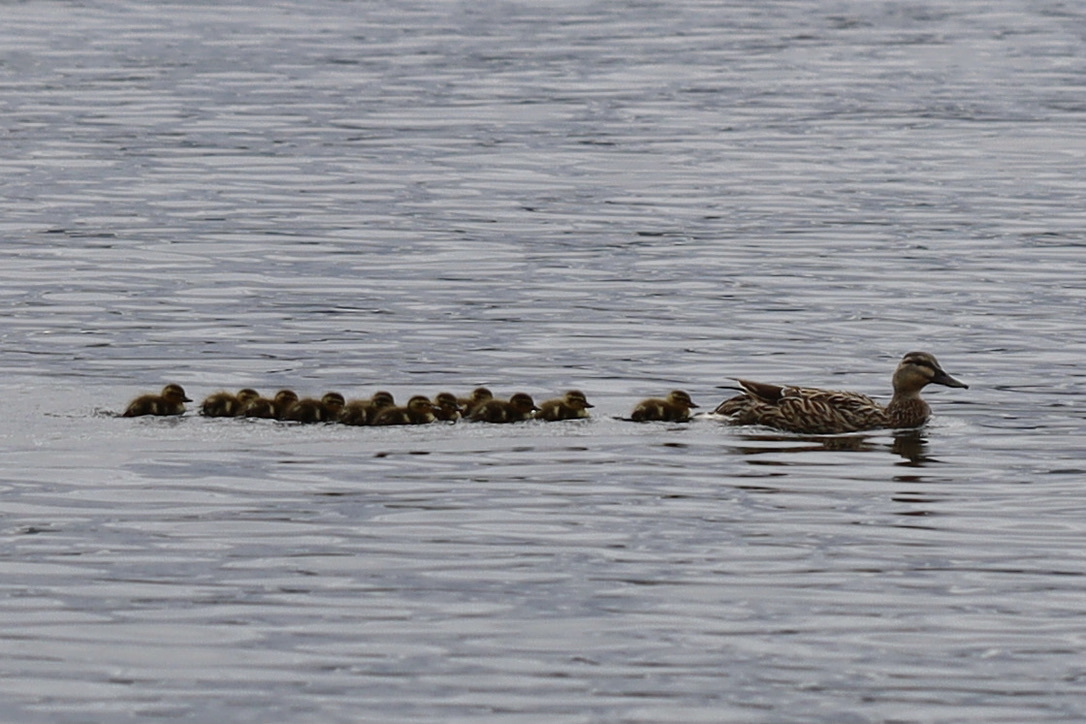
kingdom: Animalia
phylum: Chordata
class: Aves
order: Anseriformes
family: Anatidae
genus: Anas
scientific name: Anas platyrhynchos
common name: Mallard
